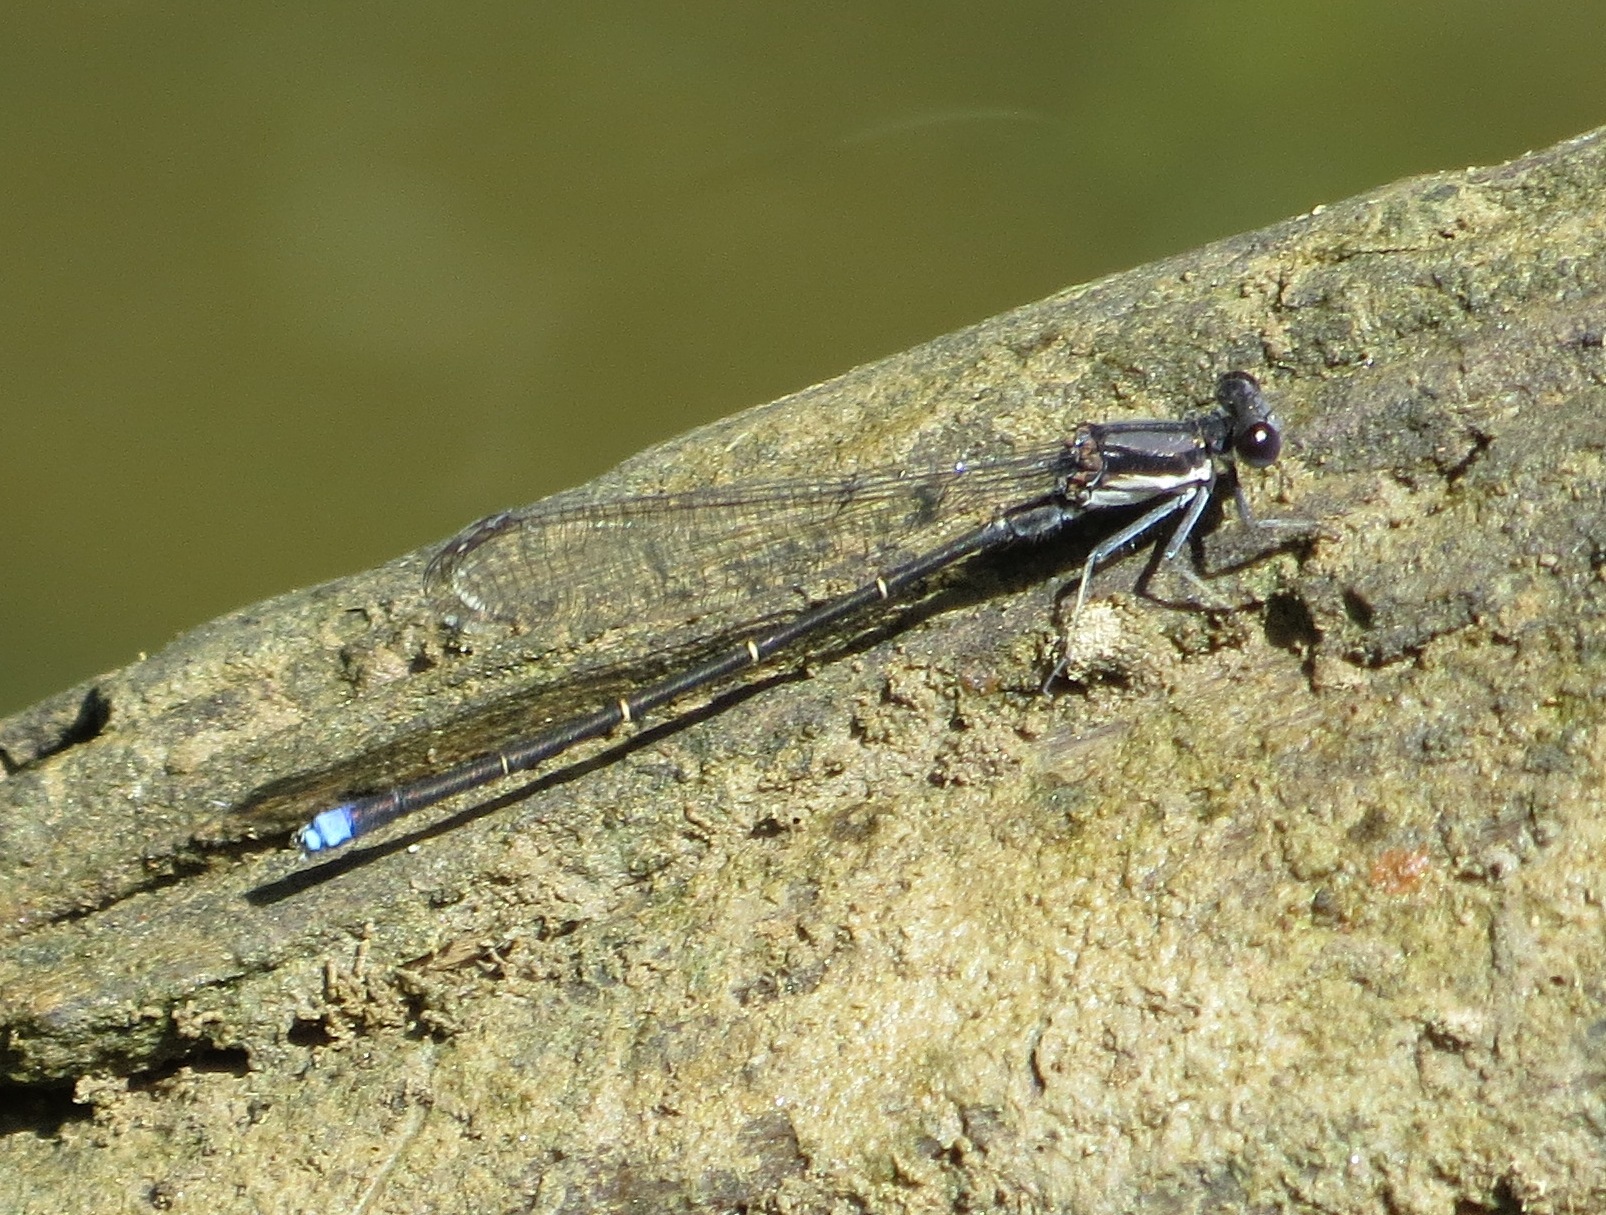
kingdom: Animalia
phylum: Arthropoda
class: Insecta
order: Odonata
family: Coenagrionidae
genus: Argia
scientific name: Argia tibialis
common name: Blue-tipped dancer
